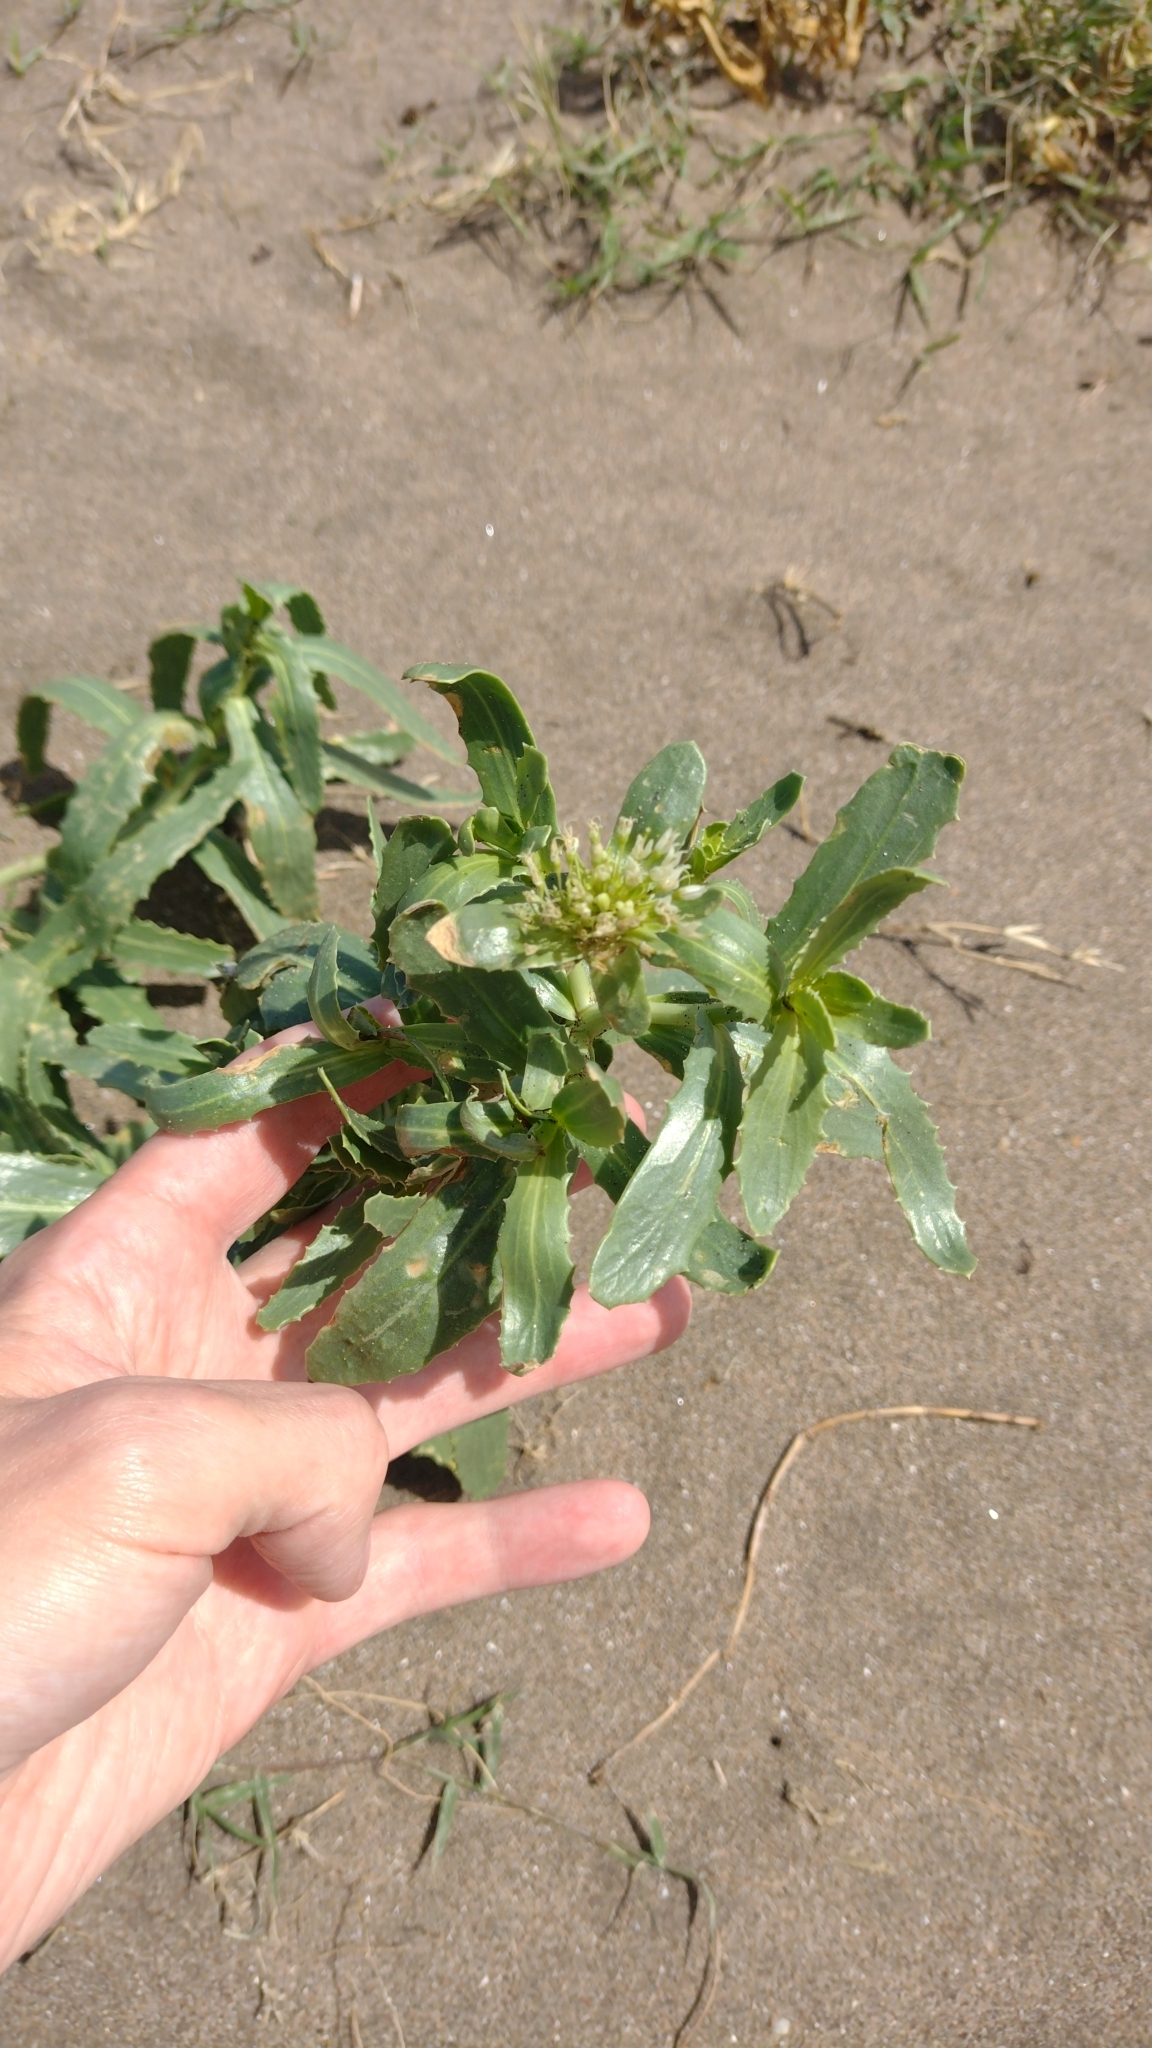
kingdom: Plantae
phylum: Tracheophyta
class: Magnoliopsida
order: Asterales
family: Calyceraceae
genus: Calycera
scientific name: Calycera crassifolia
